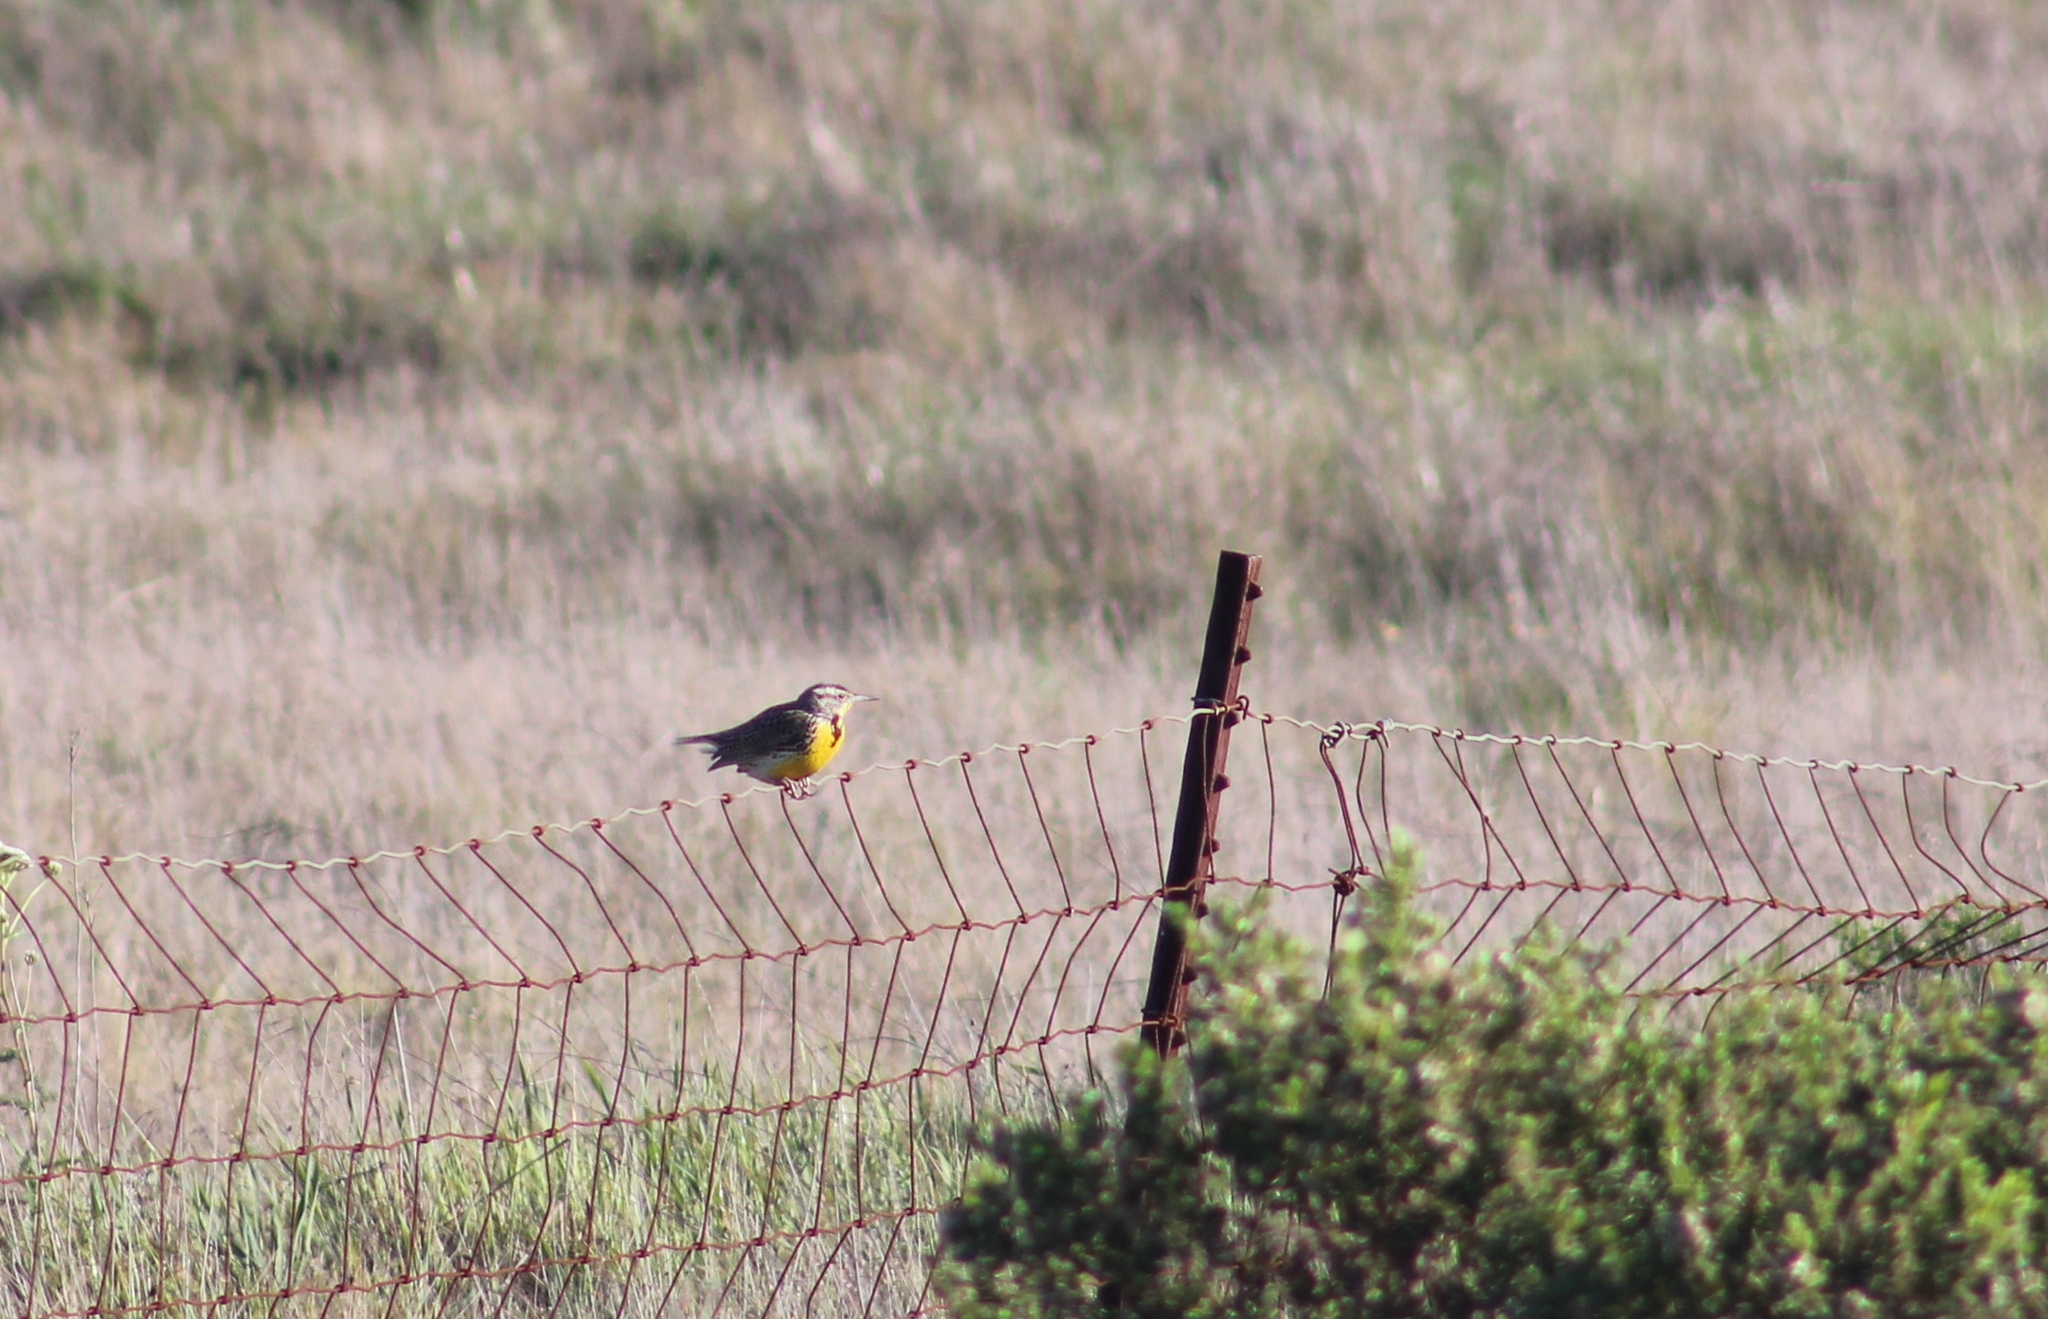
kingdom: Animalia
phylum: Chordata
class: Aves
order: Passeriformes
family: Icteridae
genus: Sturnella
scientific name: Sturnella neglecta
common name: Western meadowlark
